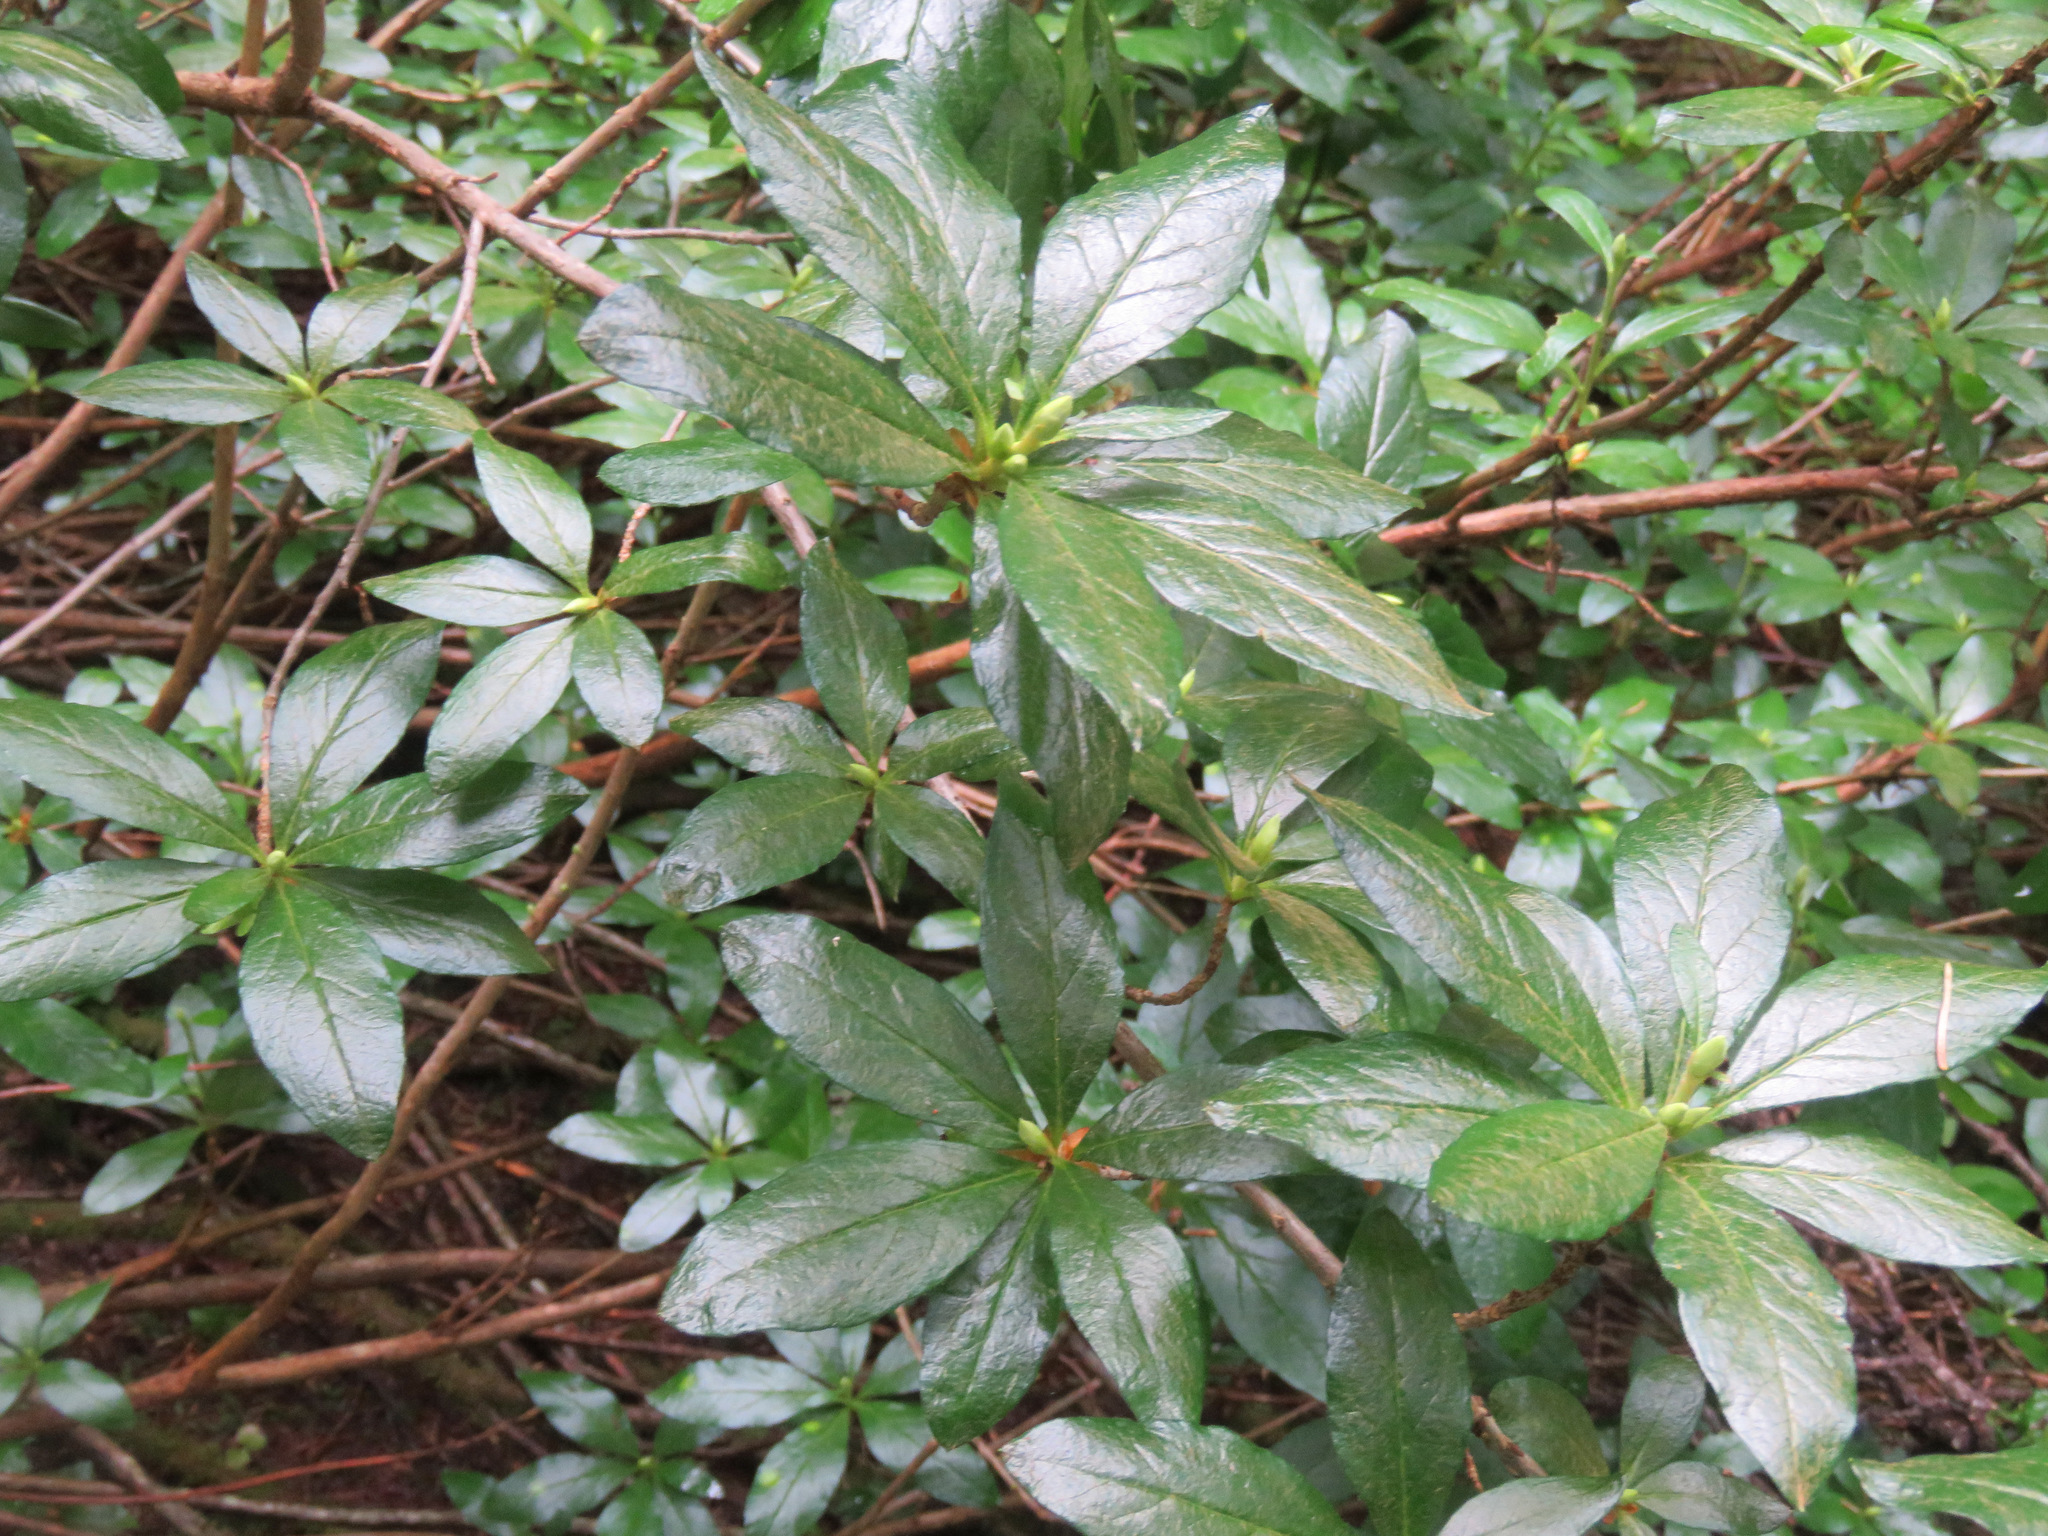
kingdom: Plantae
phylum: Tracheophyta
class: Magnoliopsida
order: Ericales
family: Ericaceae
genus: Rhododendron
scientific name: Rhododendron albiflorum
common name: White rhododendron
